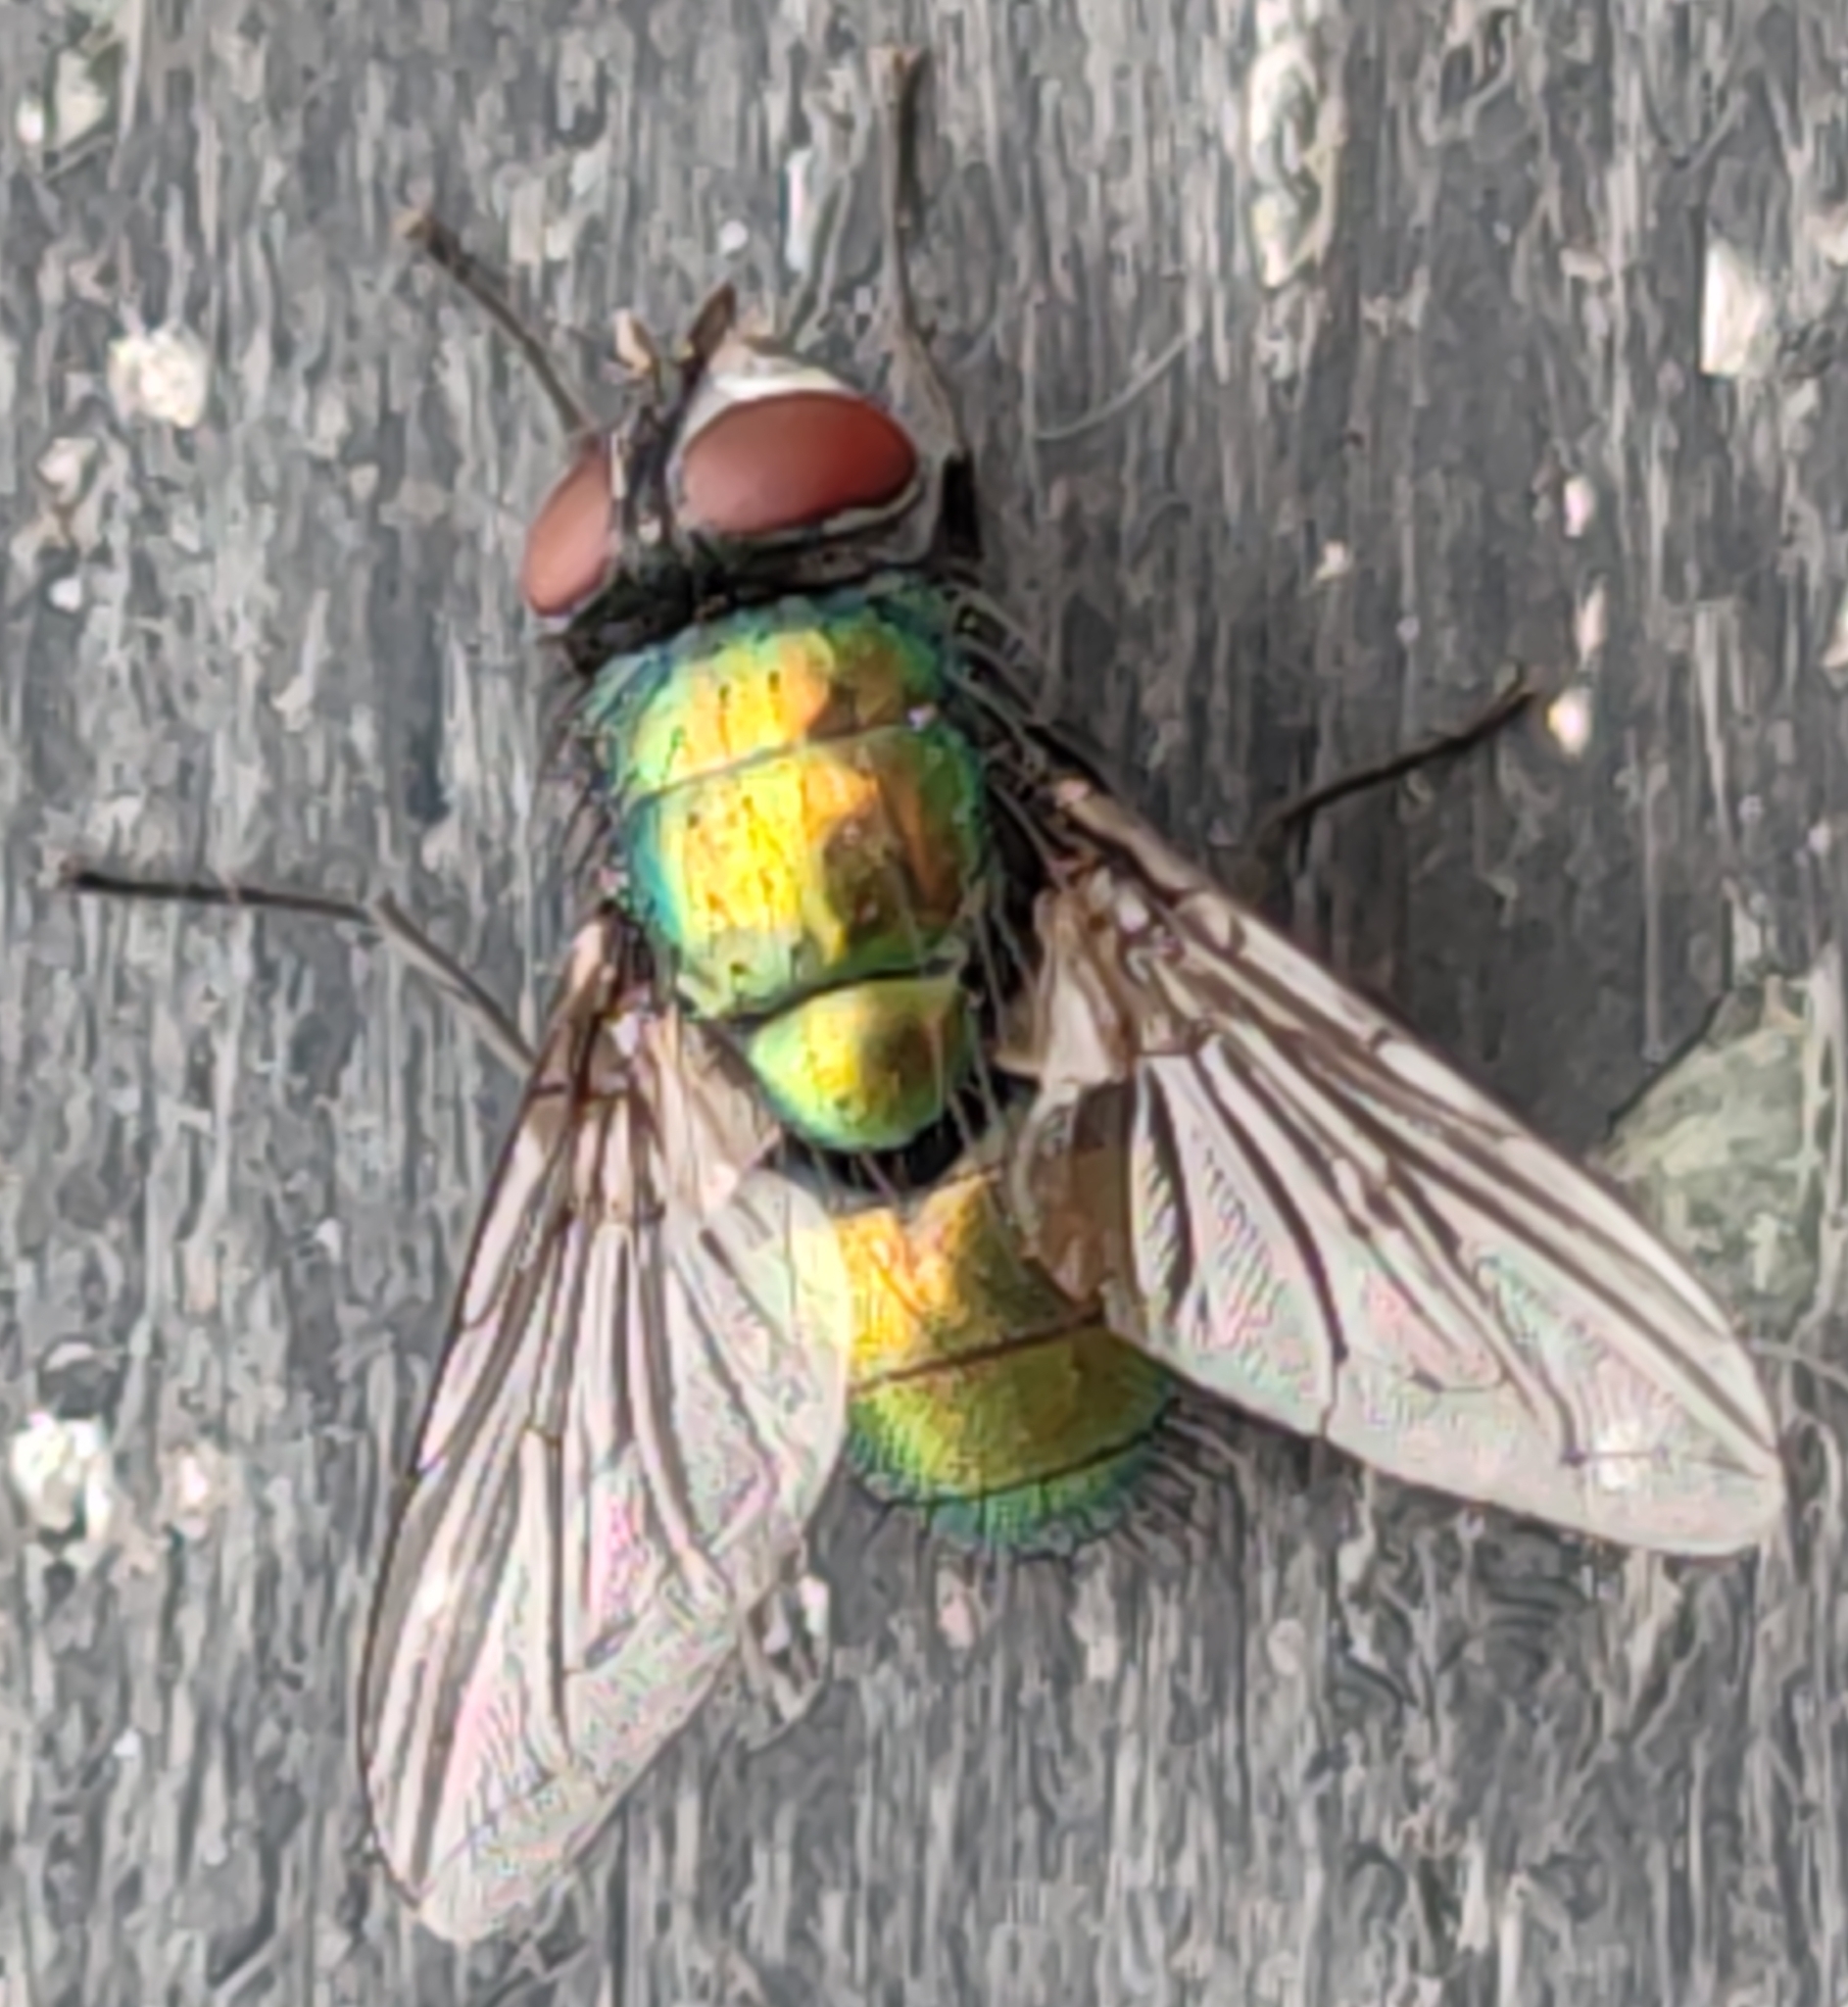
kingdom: Animalia
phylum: Arthropoda
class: Insecta
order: Diptera
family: Calliphoridae
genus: Lucilia
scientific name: Lucilia sericata
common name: Blow fly
